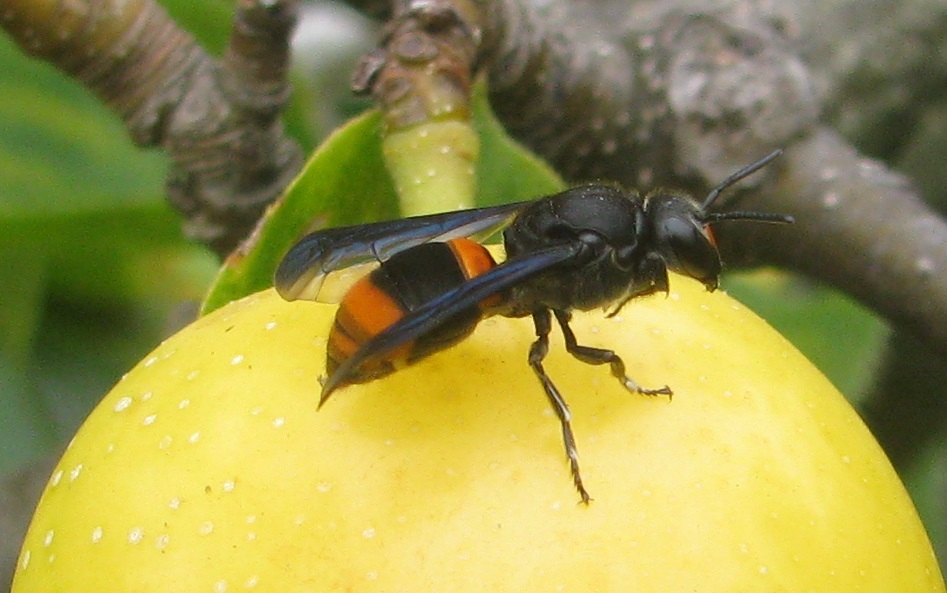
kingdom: Animalia
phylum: Arthropoda
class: Insecta
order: Hymenoptera
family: Colletidae
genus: Hyleoides
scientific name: Hyleoides concinna
